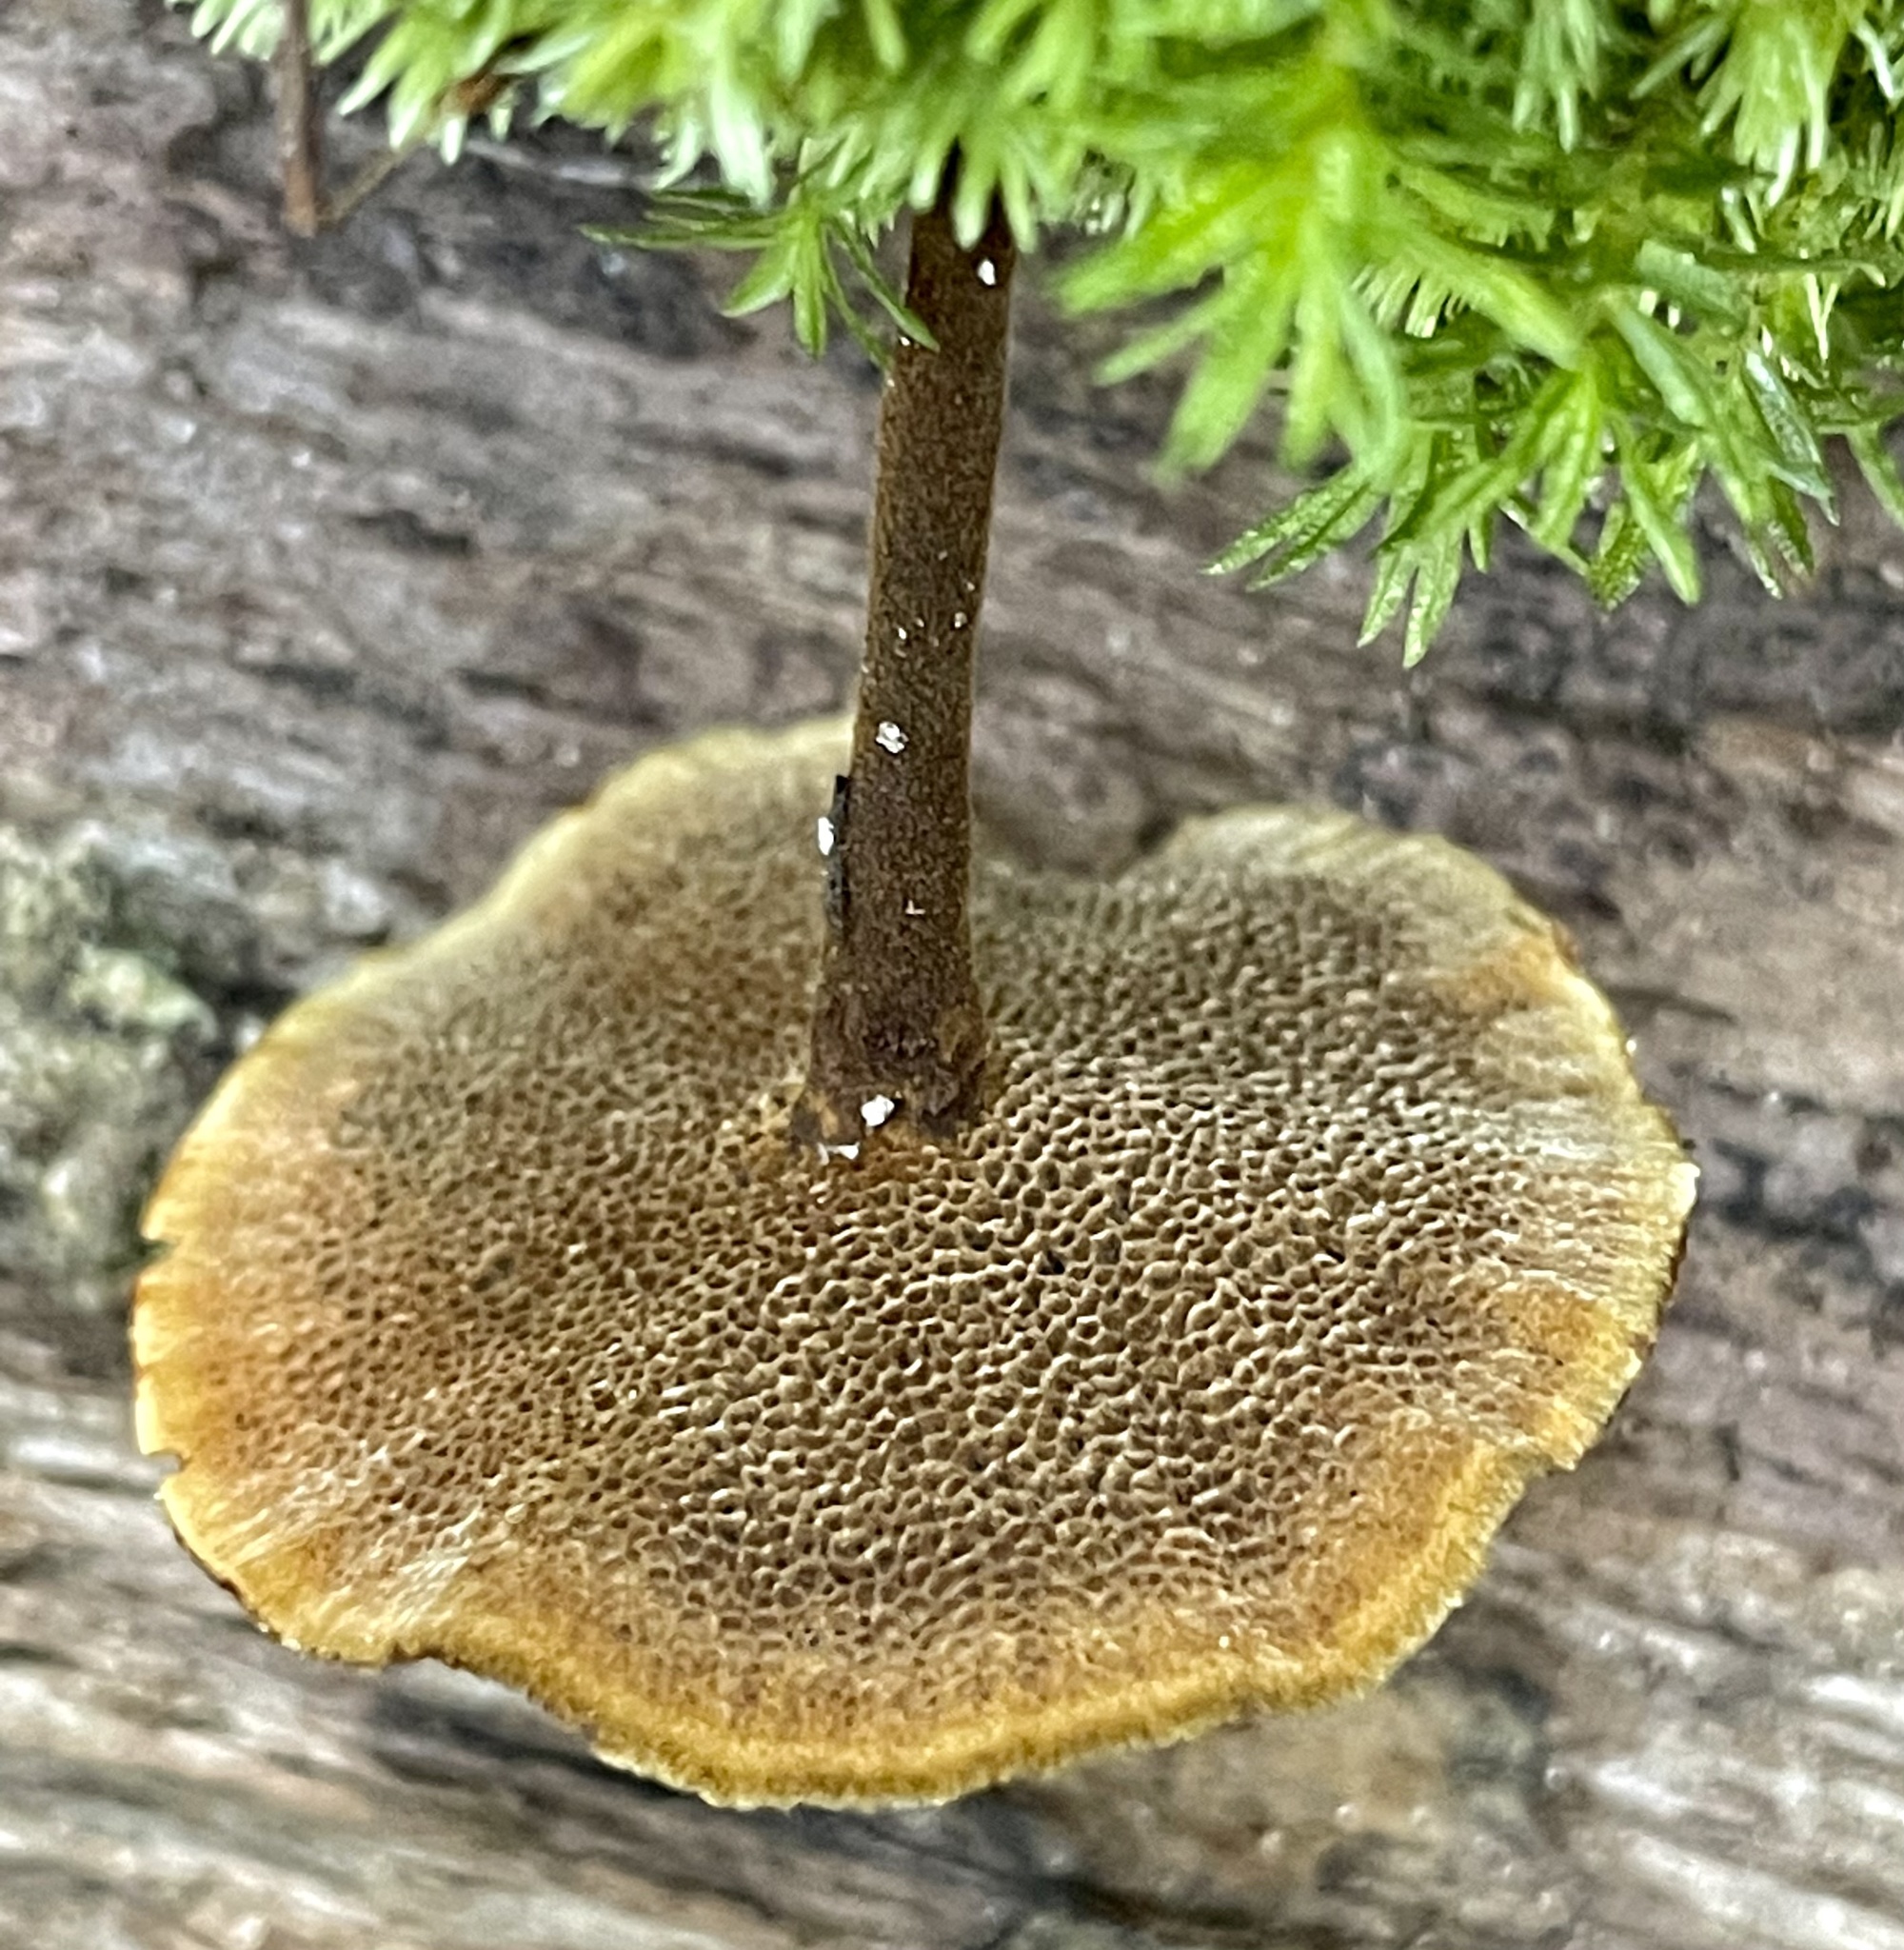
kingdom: Fungi
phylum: Basidiomycota
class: Agaricomycetes
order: Hymenochaetales
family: Hymenochaetaceae
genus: Coltricia
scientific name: Coltricia cinnamomea
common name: Shiny cinnamon polypore
